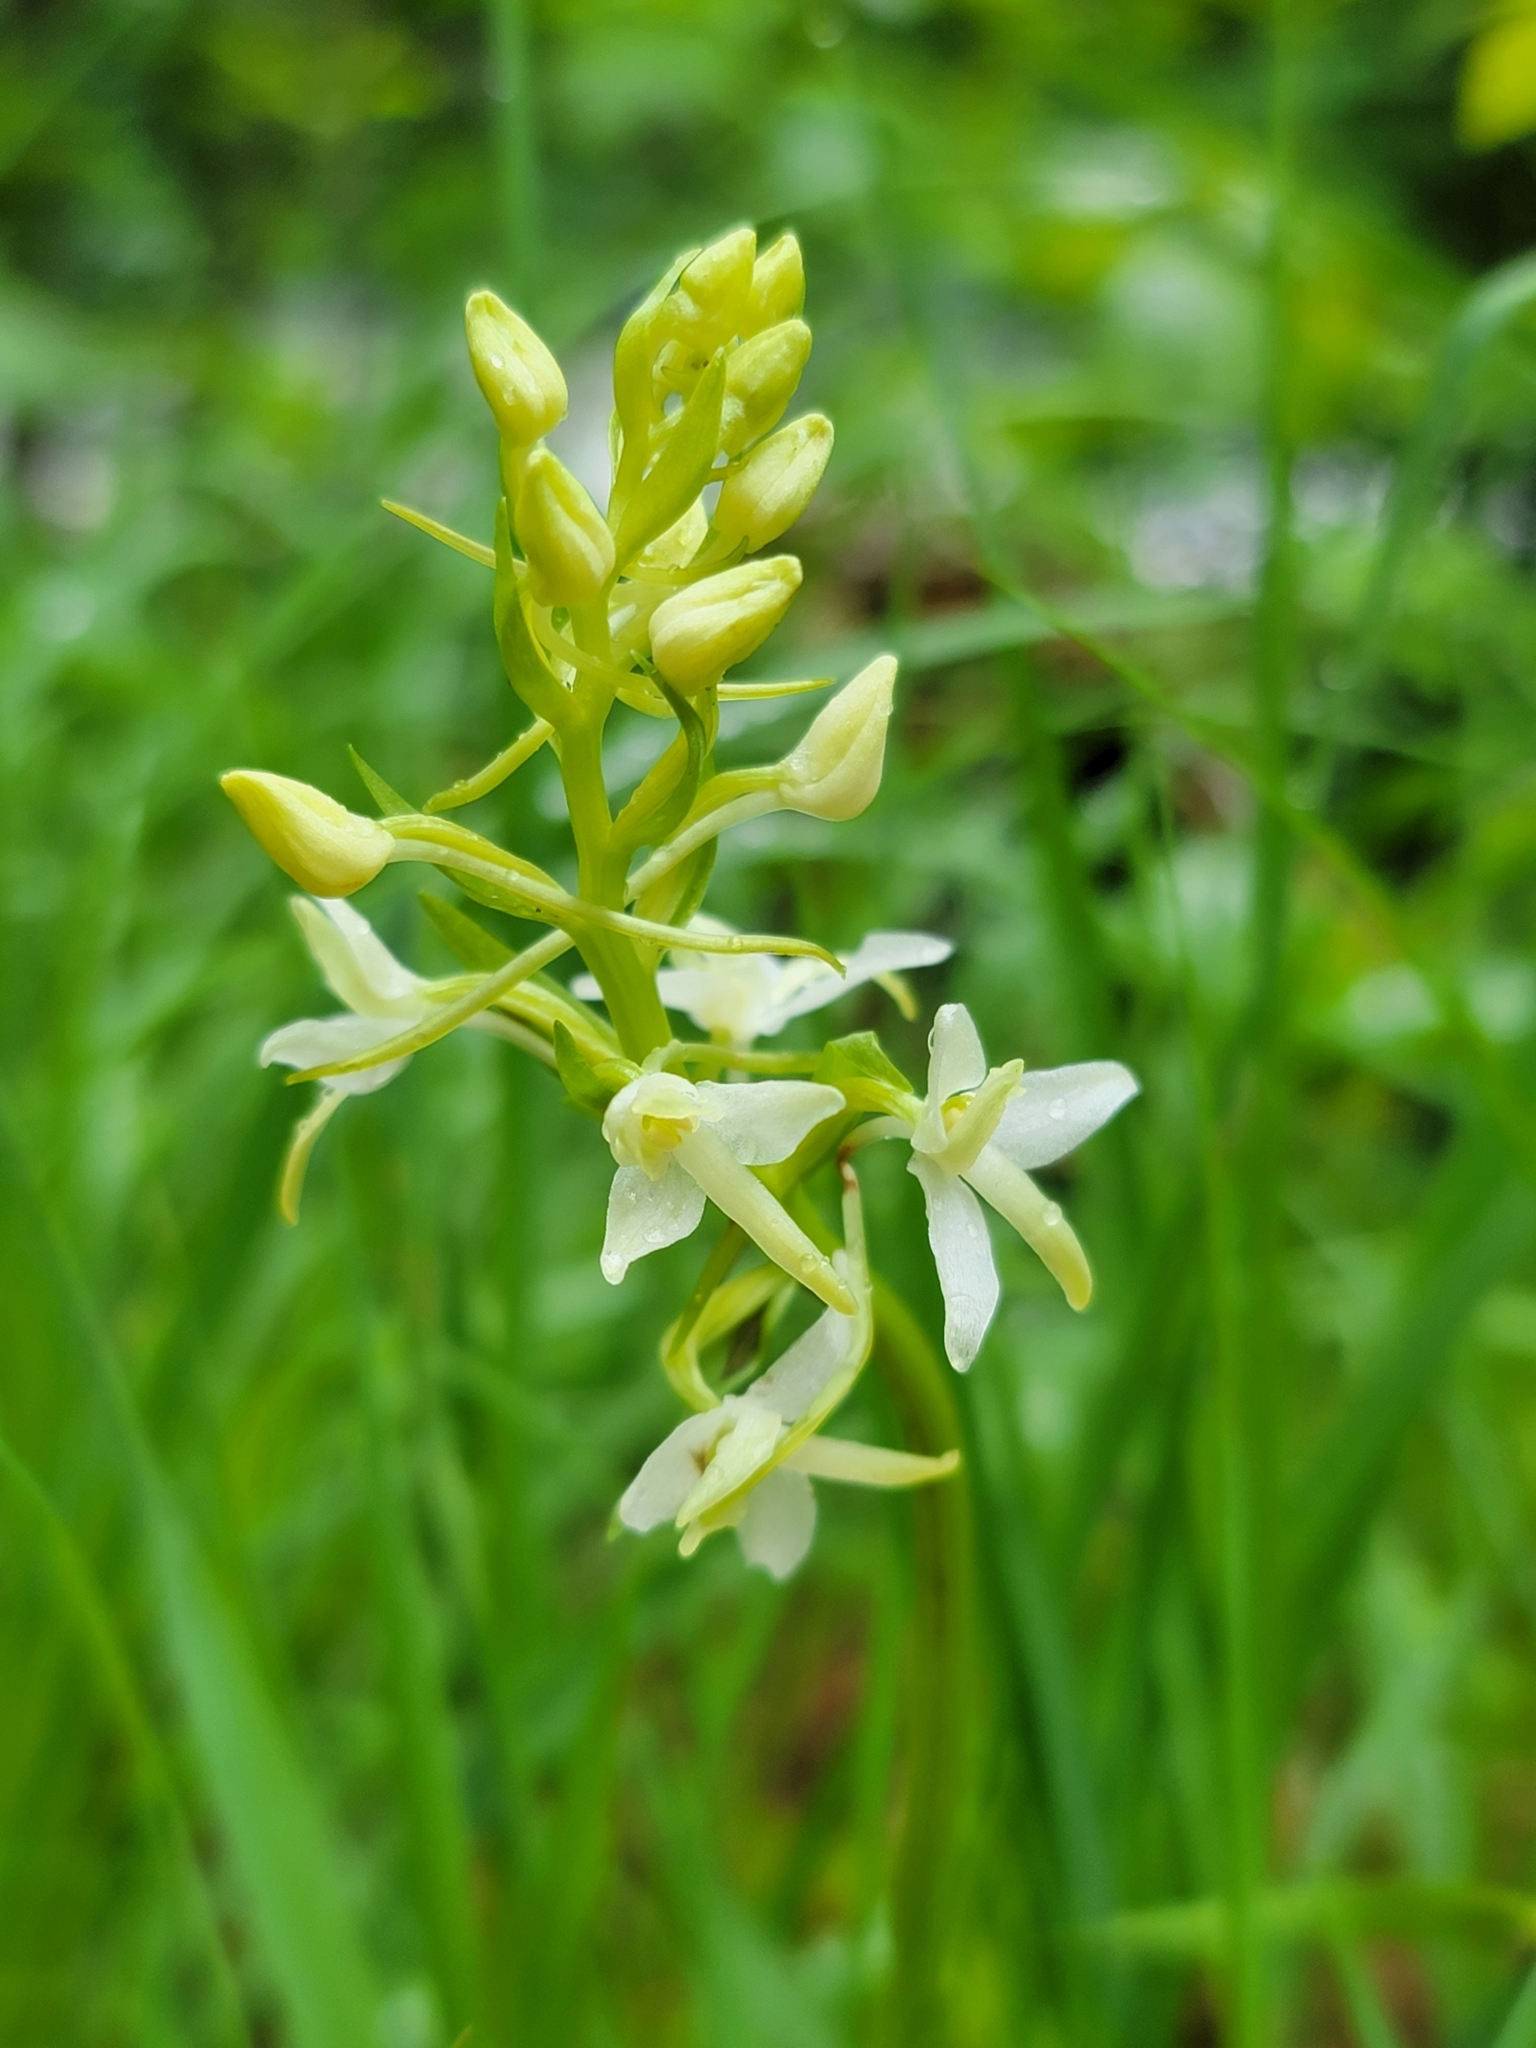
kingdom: Plantae
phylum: Tracheophyta
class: Liliopsida
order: Asparagales
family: Orchidaceae
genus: Platanthera
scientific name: Platanthera bifolia
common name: Lesser butterfly-orchid
